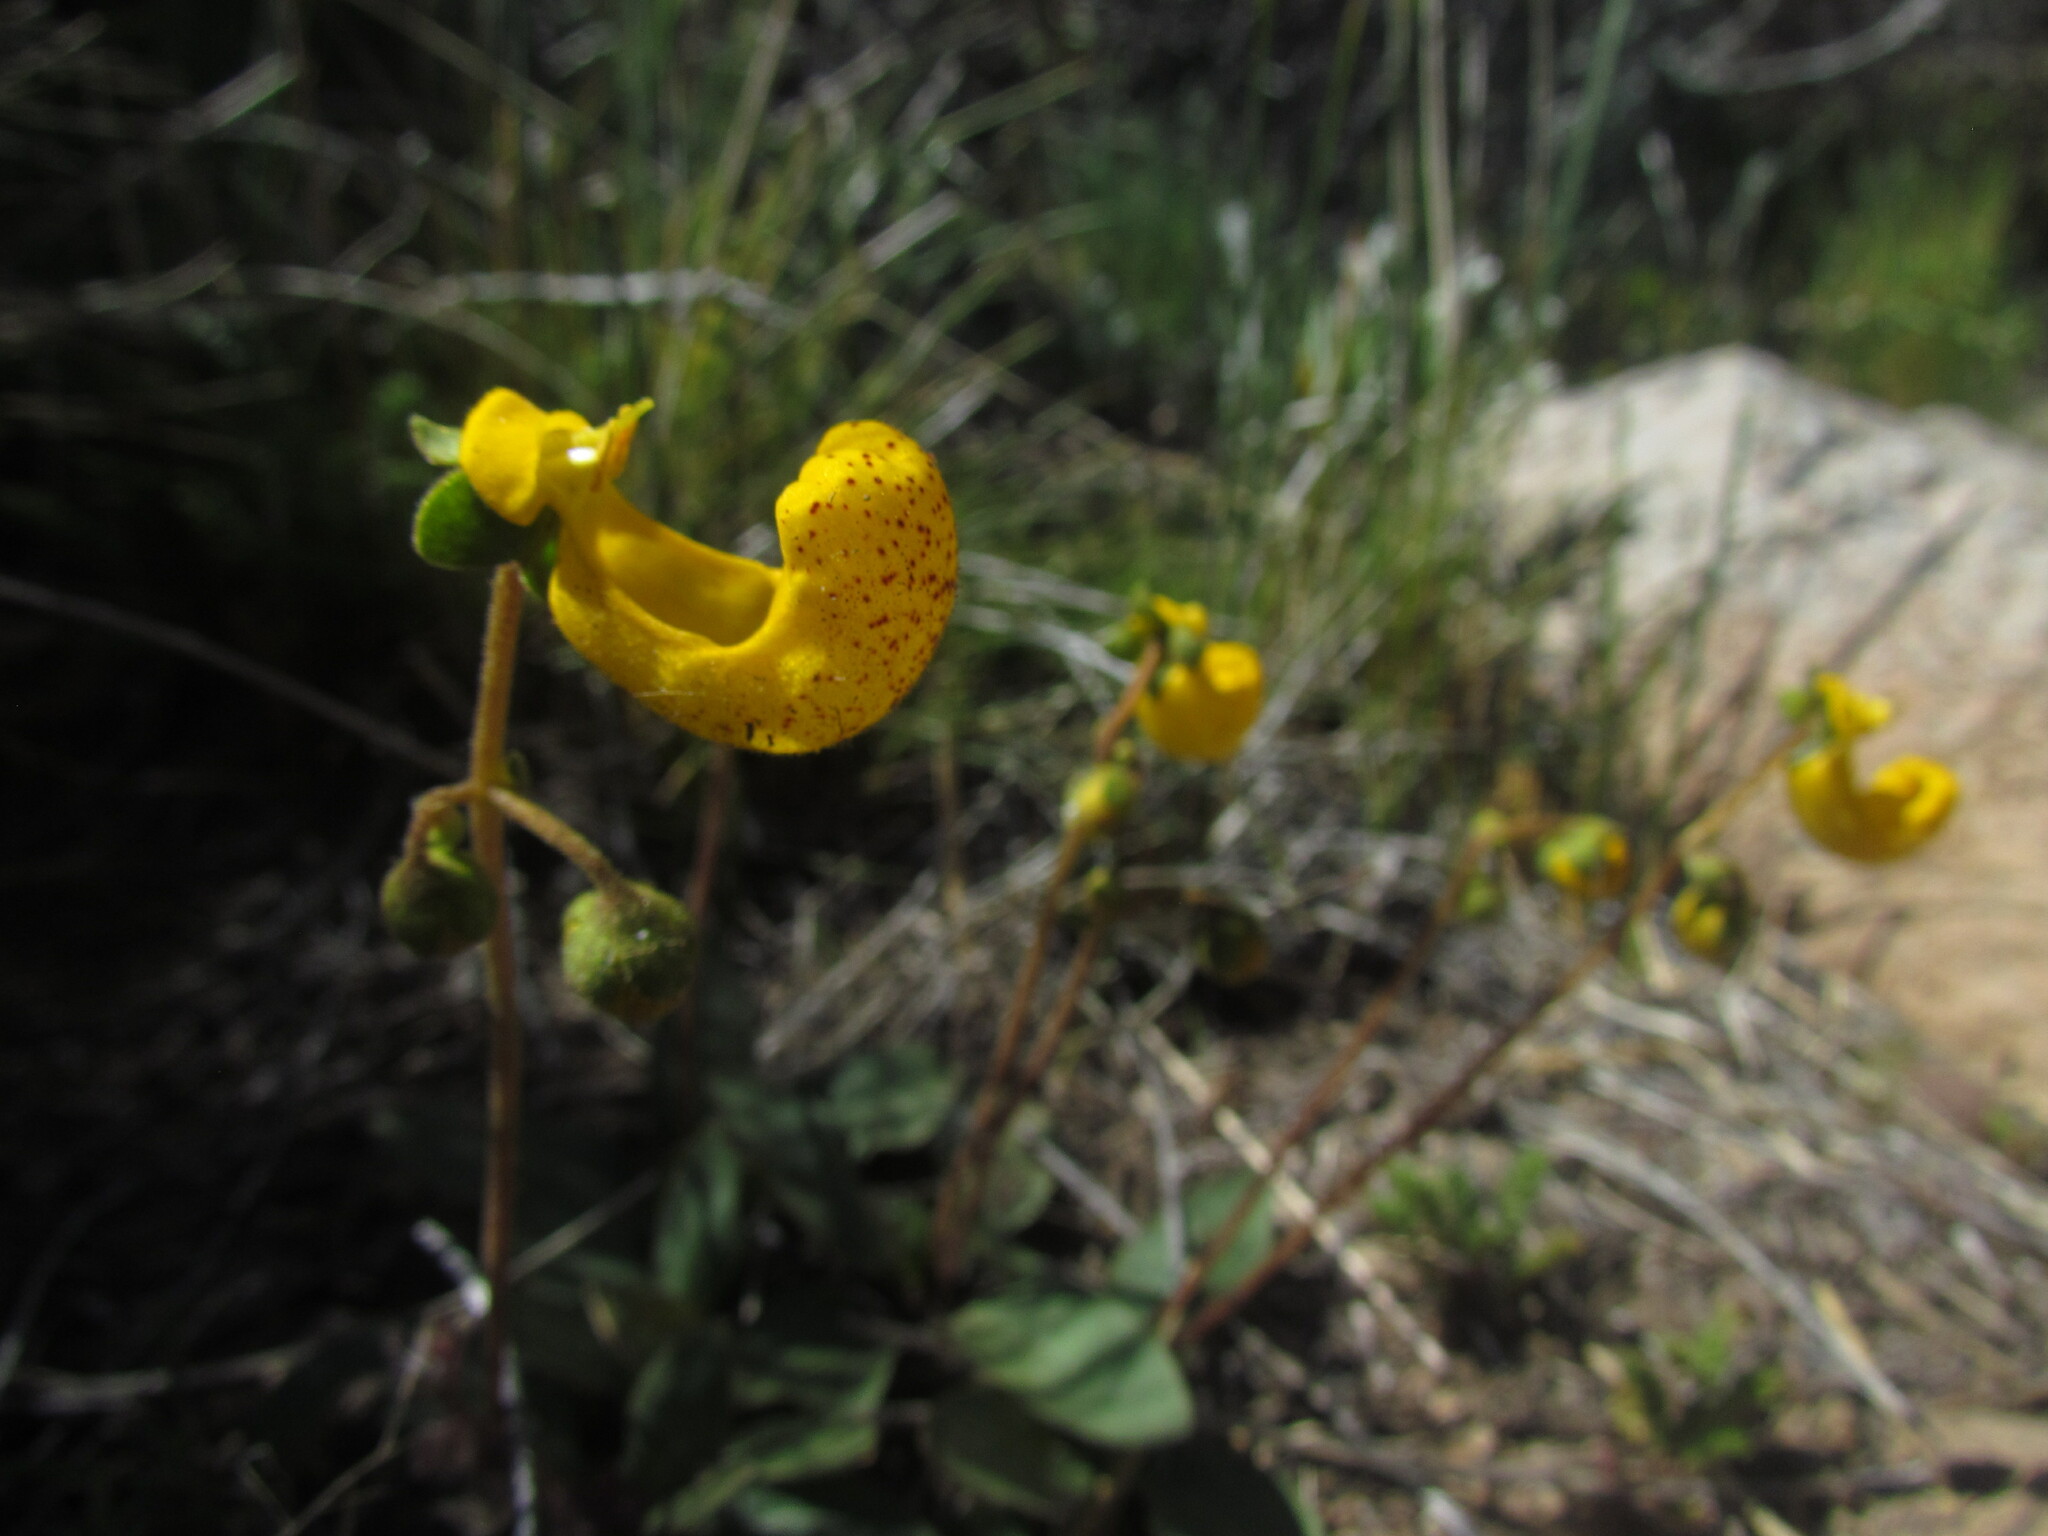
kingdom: Plantae
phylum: Tracheophyta
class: Magnoliopsida
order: Lamiales
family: Calceolariaceae
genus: Calceolaria
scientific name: Calceolaria polyrhiza
